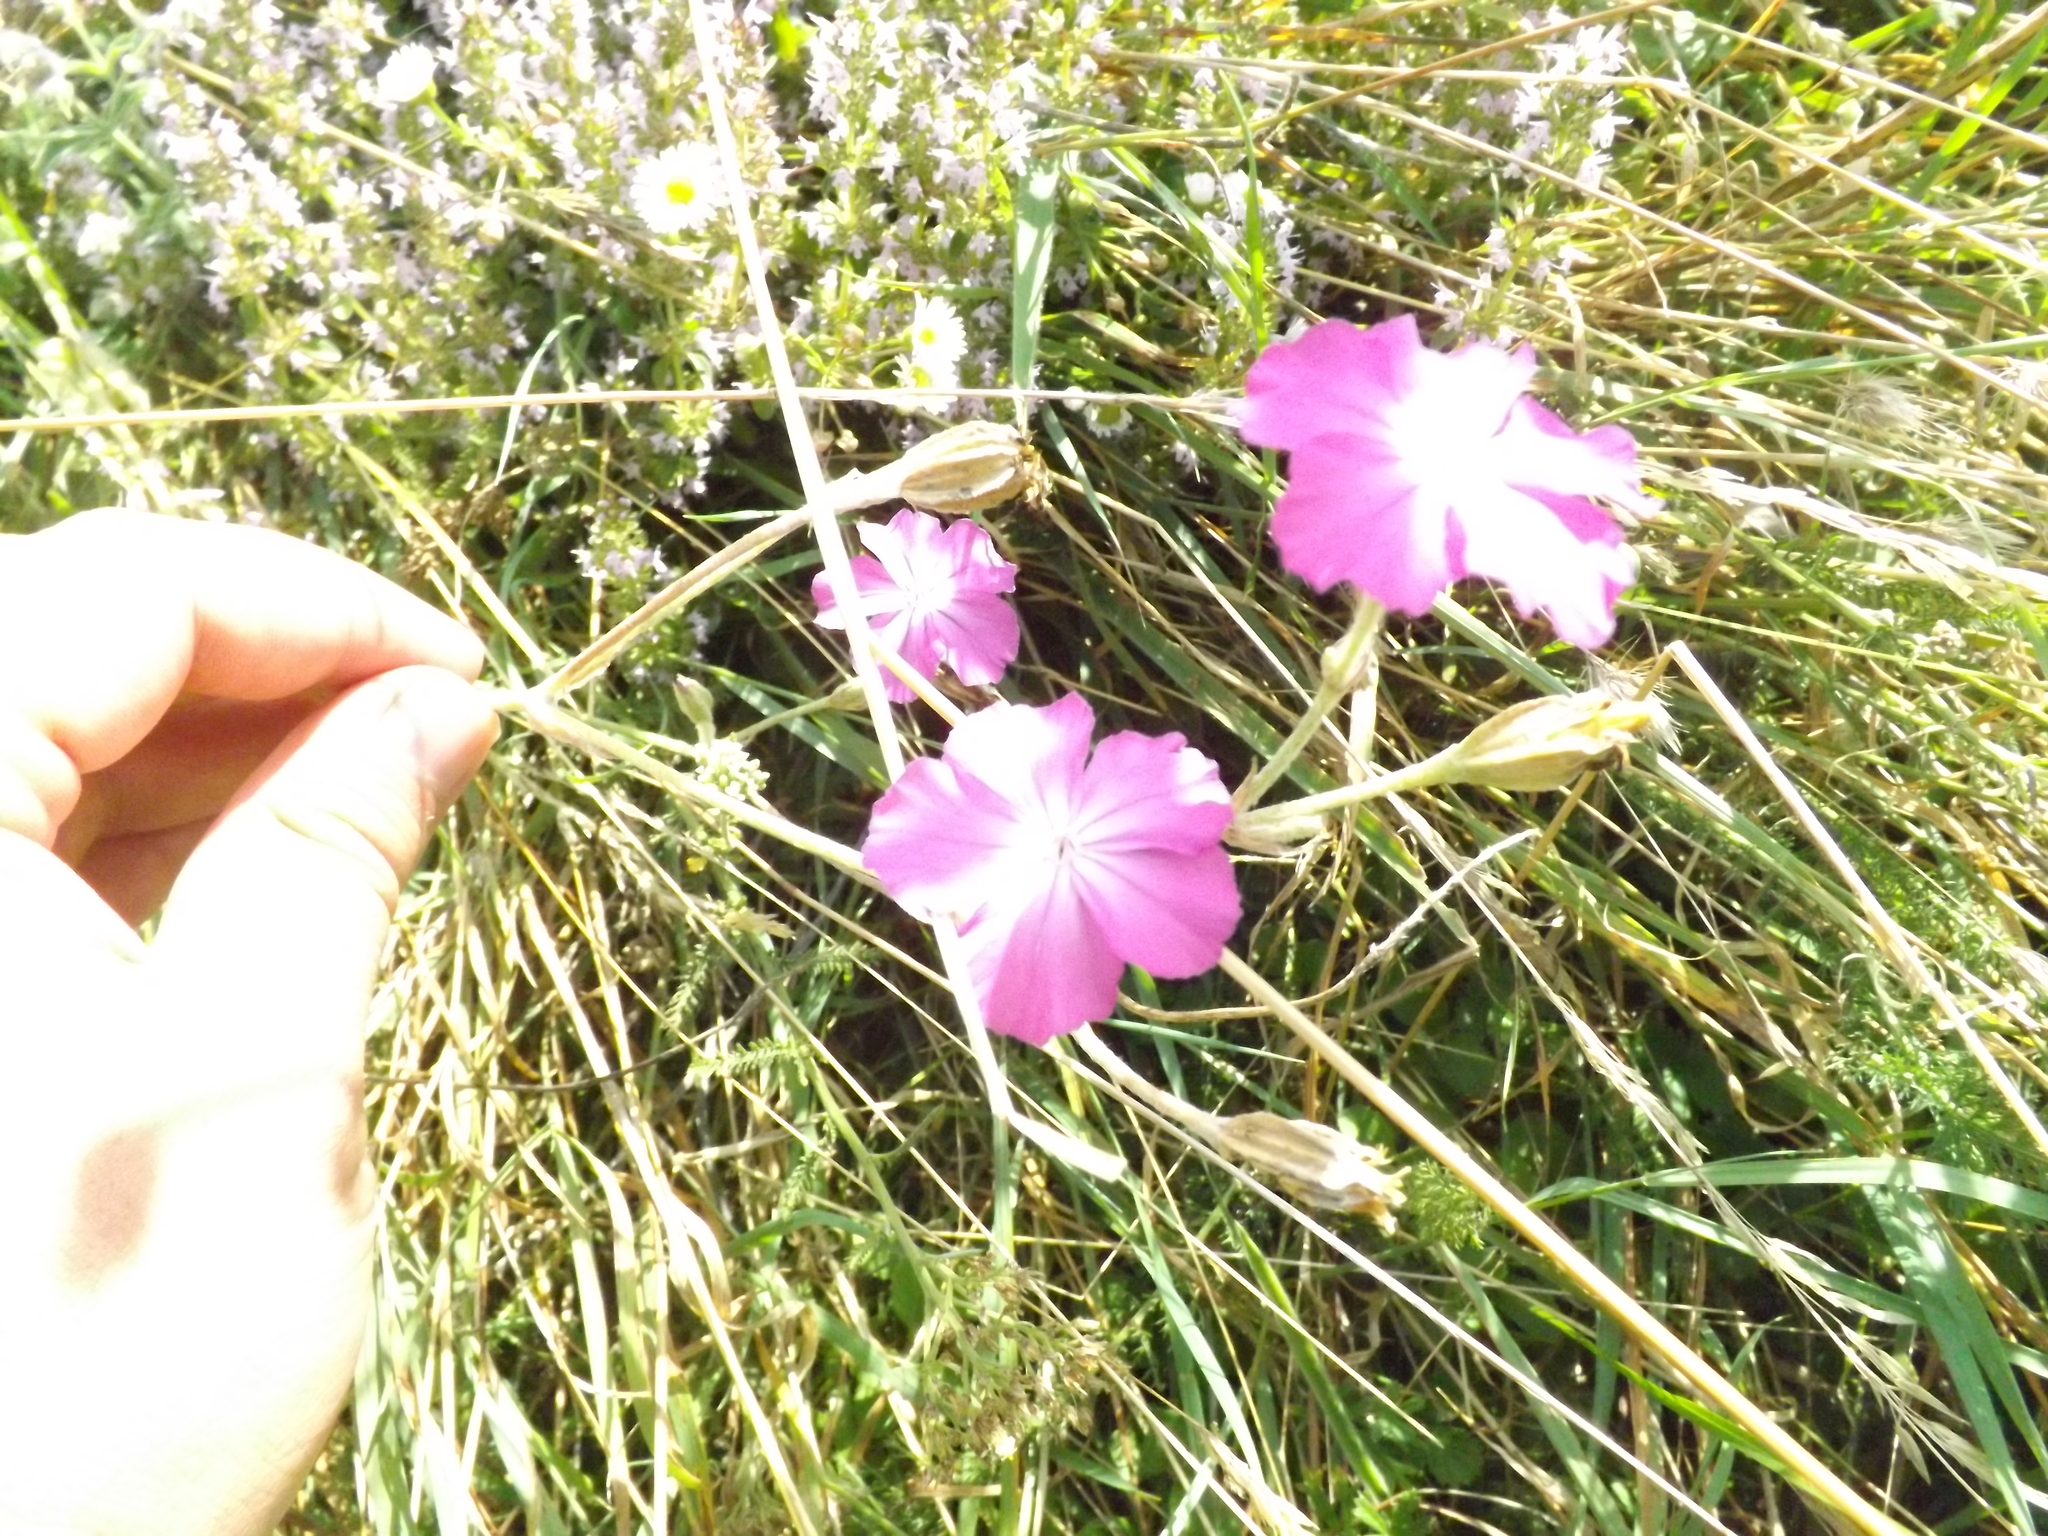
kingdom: Plantae
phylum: Tracheophyta
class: Magnoliopsida
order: Caryophyllales
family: Caryophyllaceae
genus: Silene
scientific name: Silene coronaria
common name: Rose campion
